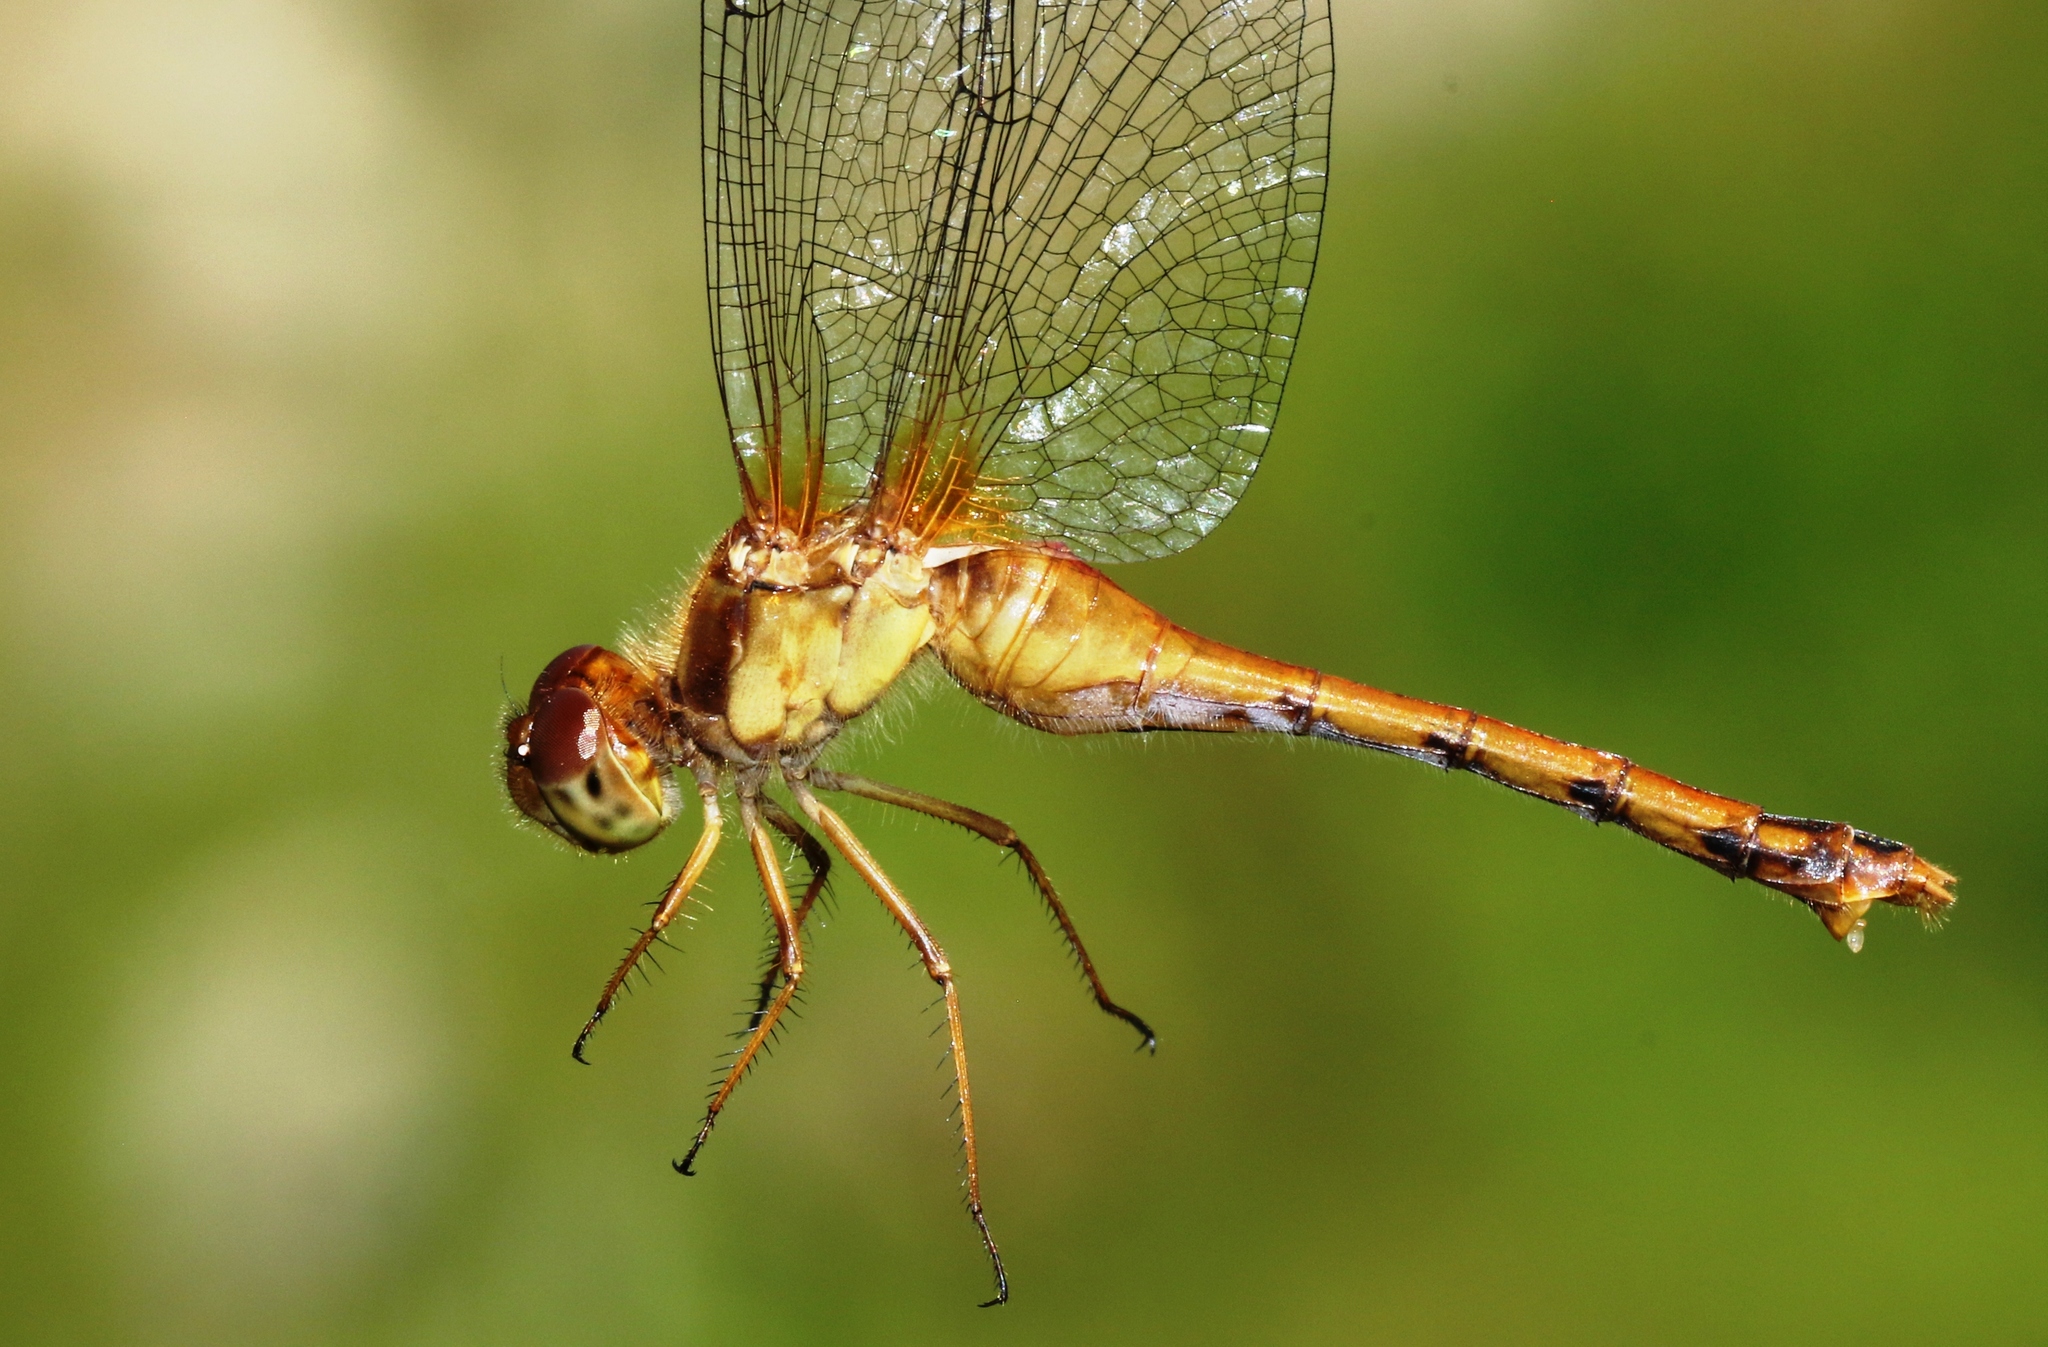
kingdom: Animalia
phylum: Arthropoda
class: Insecta
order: Odonata
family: Libellulidae
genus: Sympetrum
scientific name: Sympetrum vicinum
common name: Autumn meadowhawk
